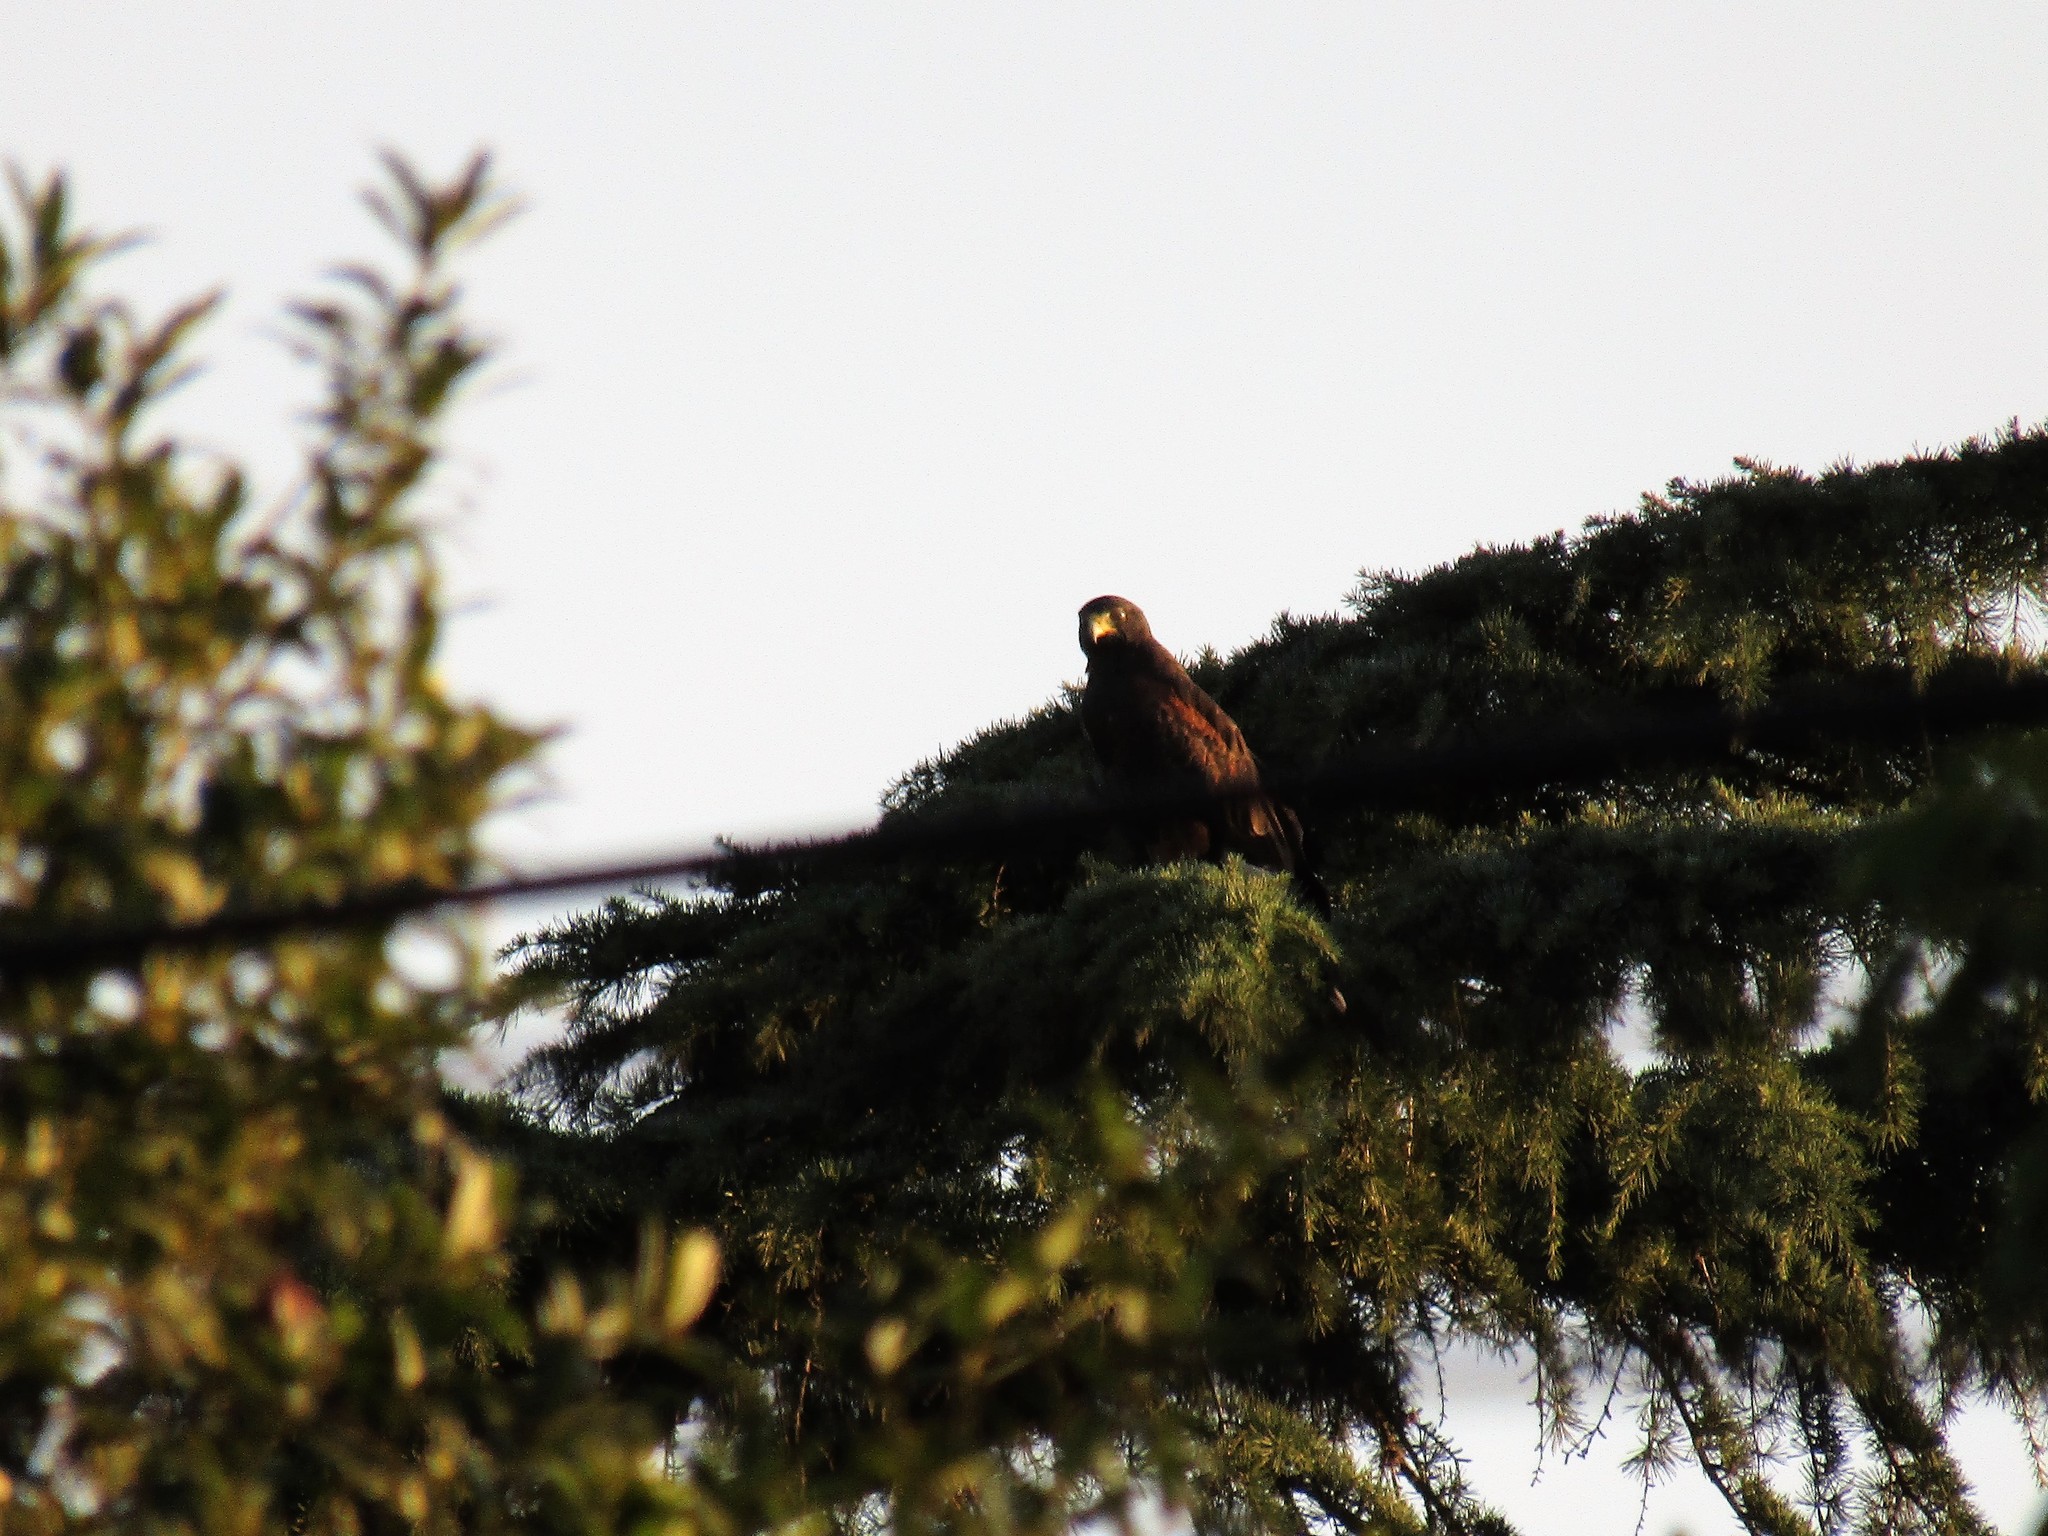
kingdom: Animalia
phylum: Chordata
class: Aves
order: Accipitriformes
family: Accipitridae
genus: Parabuteo
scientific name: Parabuteo unicinctus
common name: Harris's hawk
